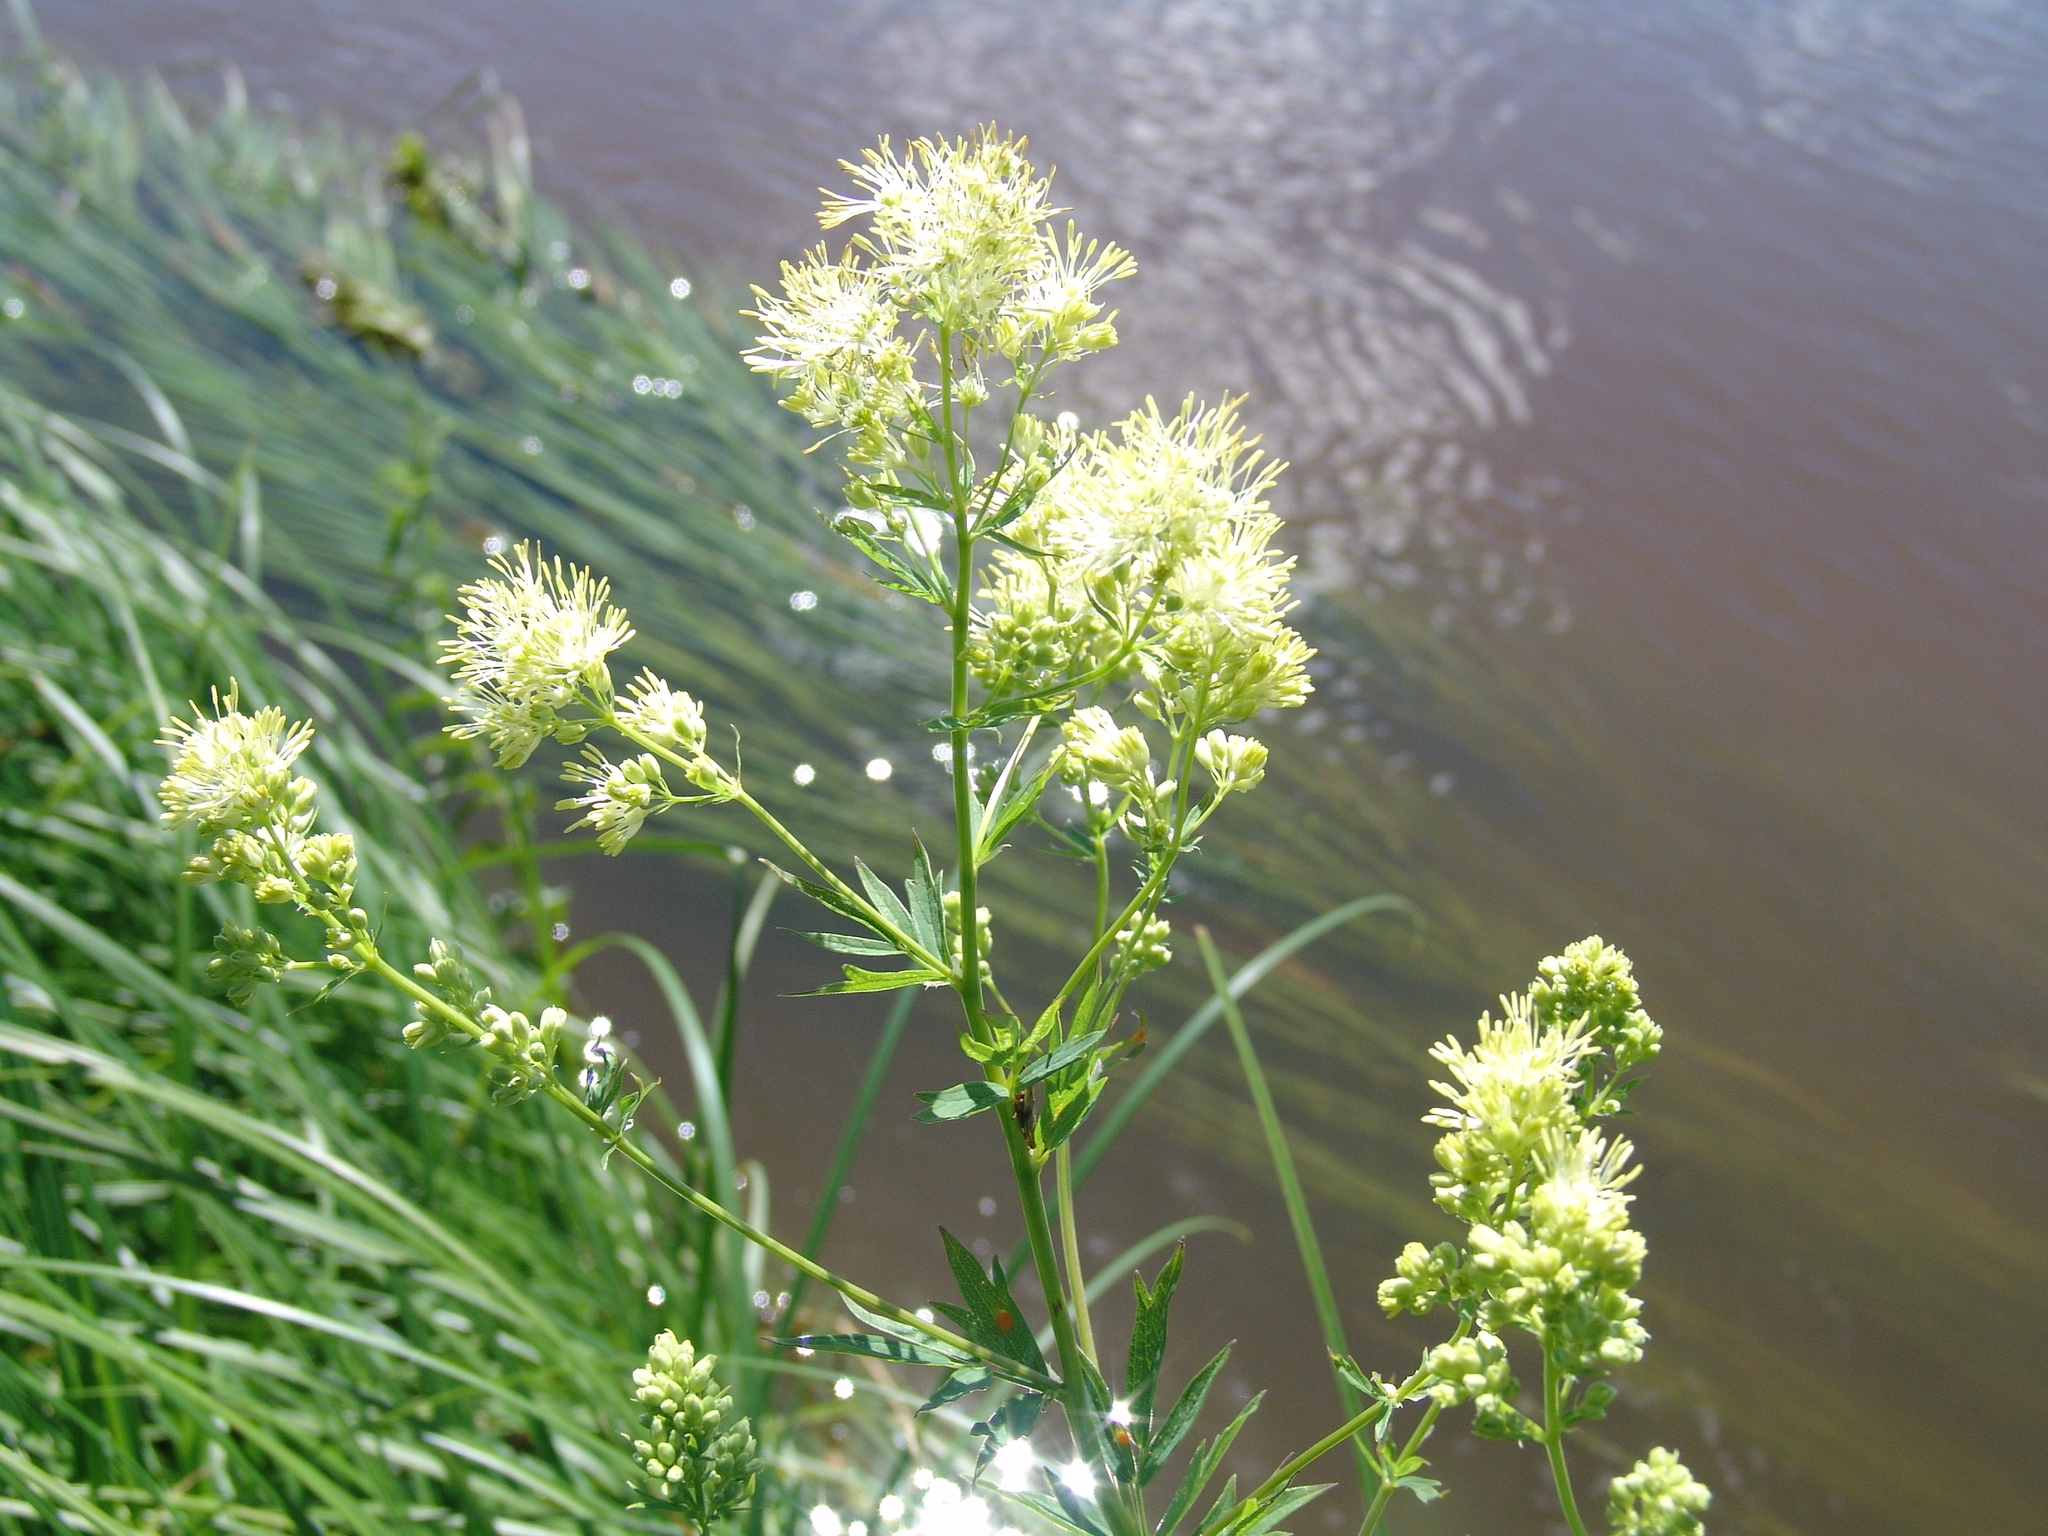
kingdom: Plantae
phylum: Tracheophyta
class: Magnoliopsida
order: Ranunculales
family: Ranunculaceae
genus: Thalictrum
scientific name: Thalictrum flavum
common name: Common meadow-rue
